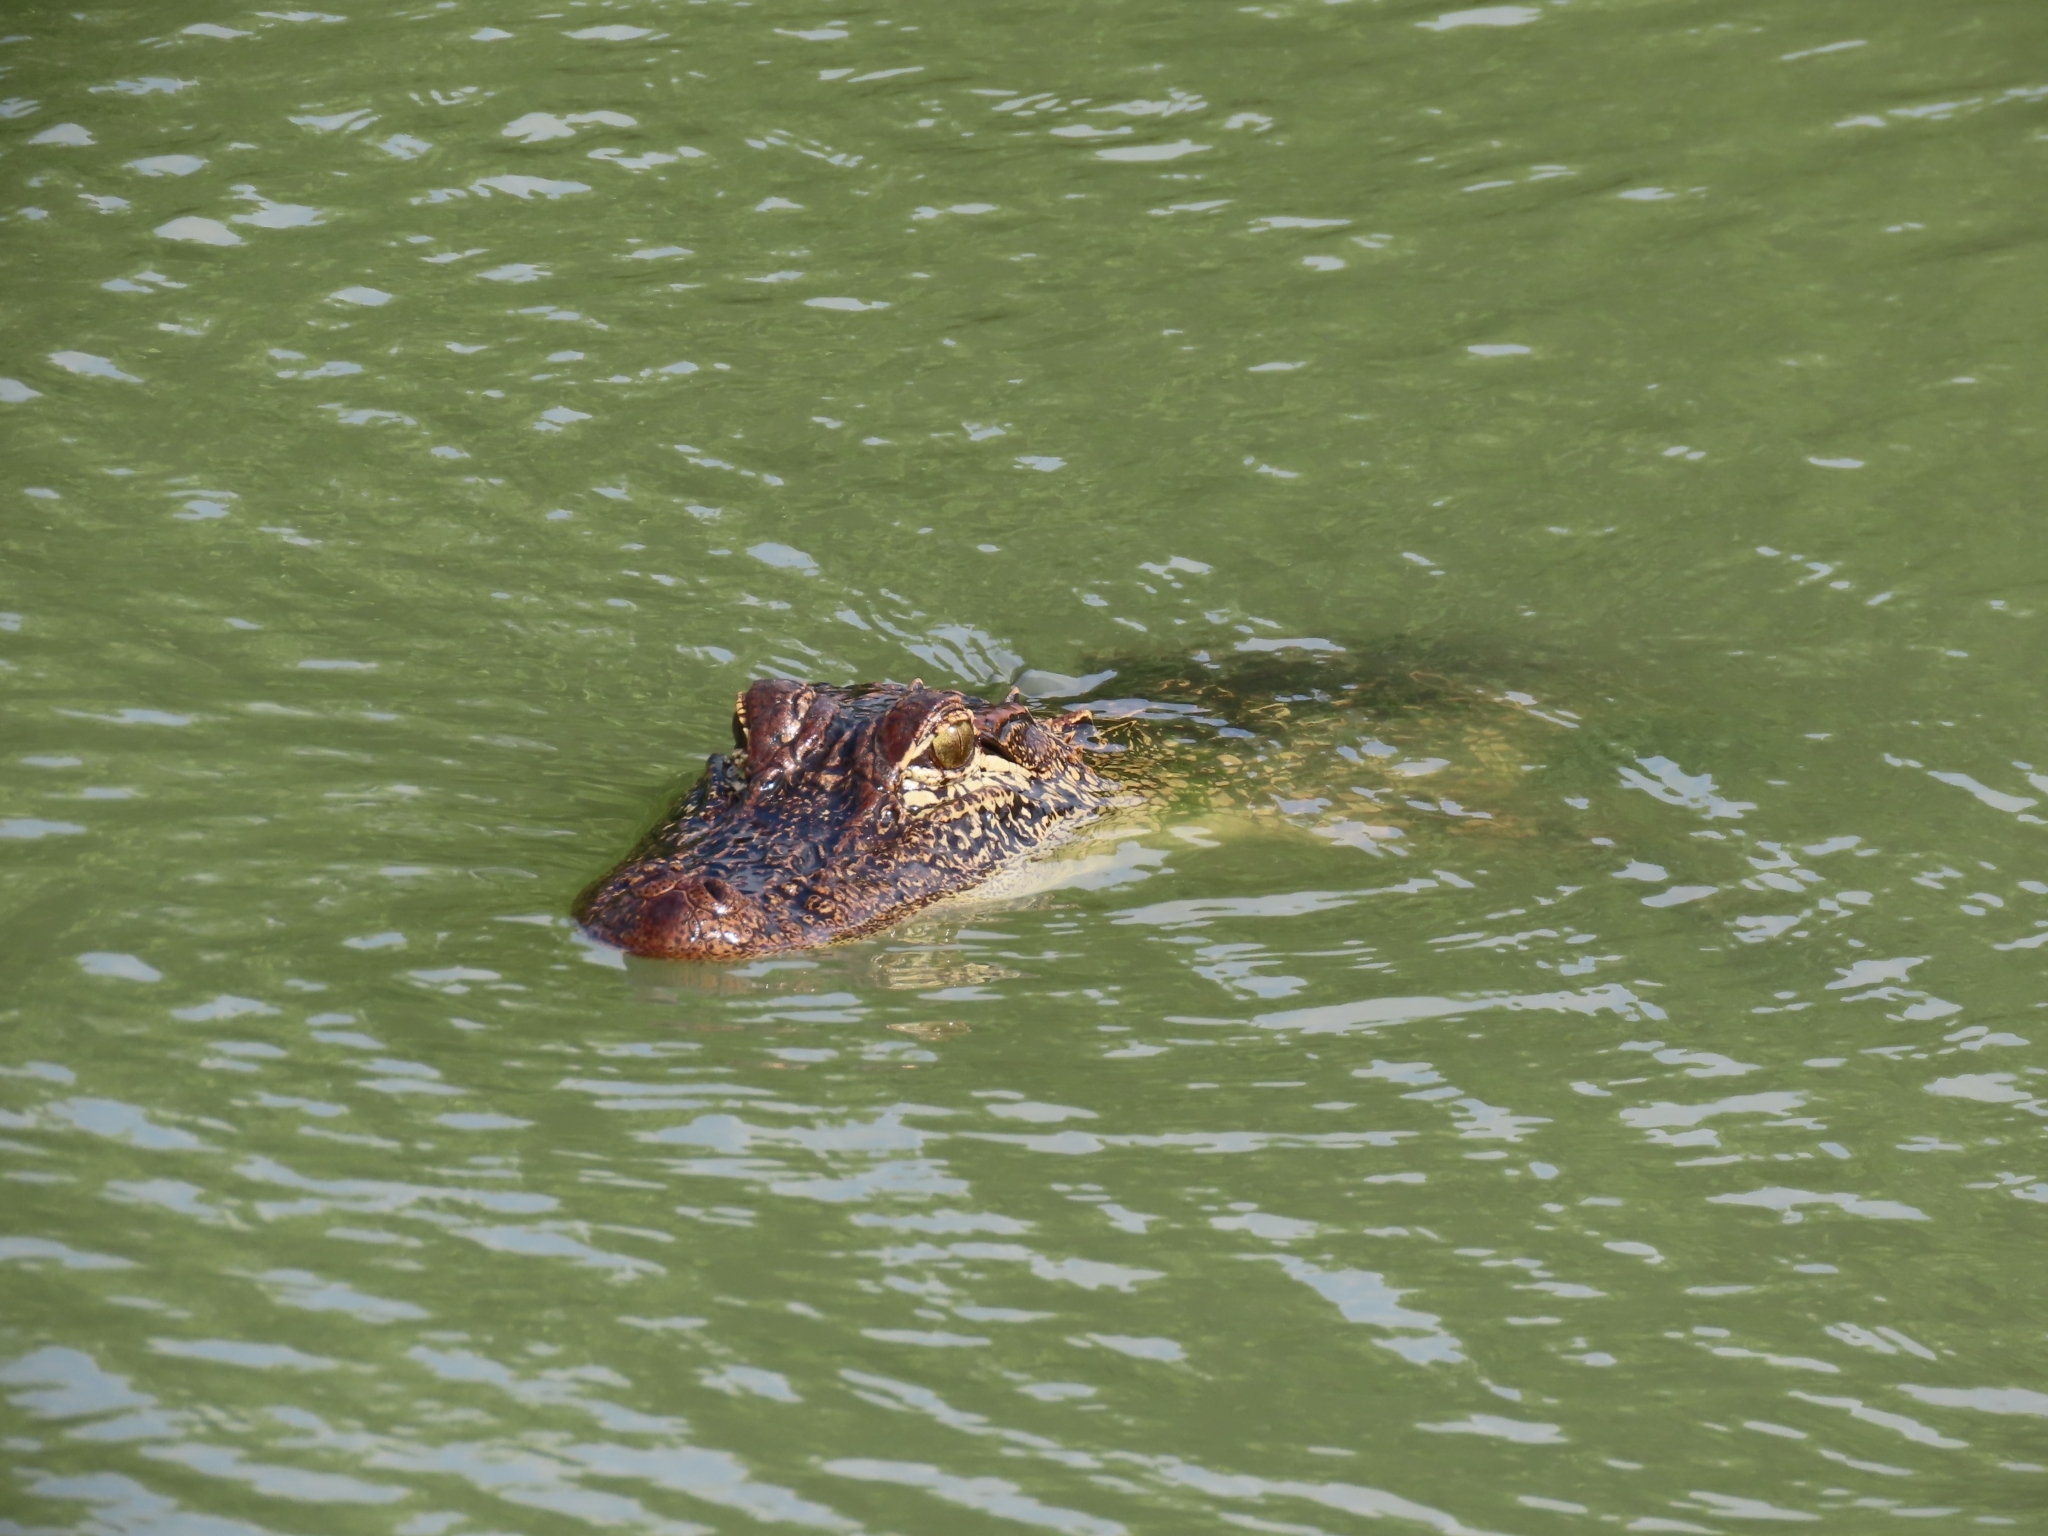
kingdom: Animalia
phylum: Chordata
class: Crocodylia
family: Alligatoridae
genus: Alligator
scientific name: Alligator mississippiensis
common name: American alligator
